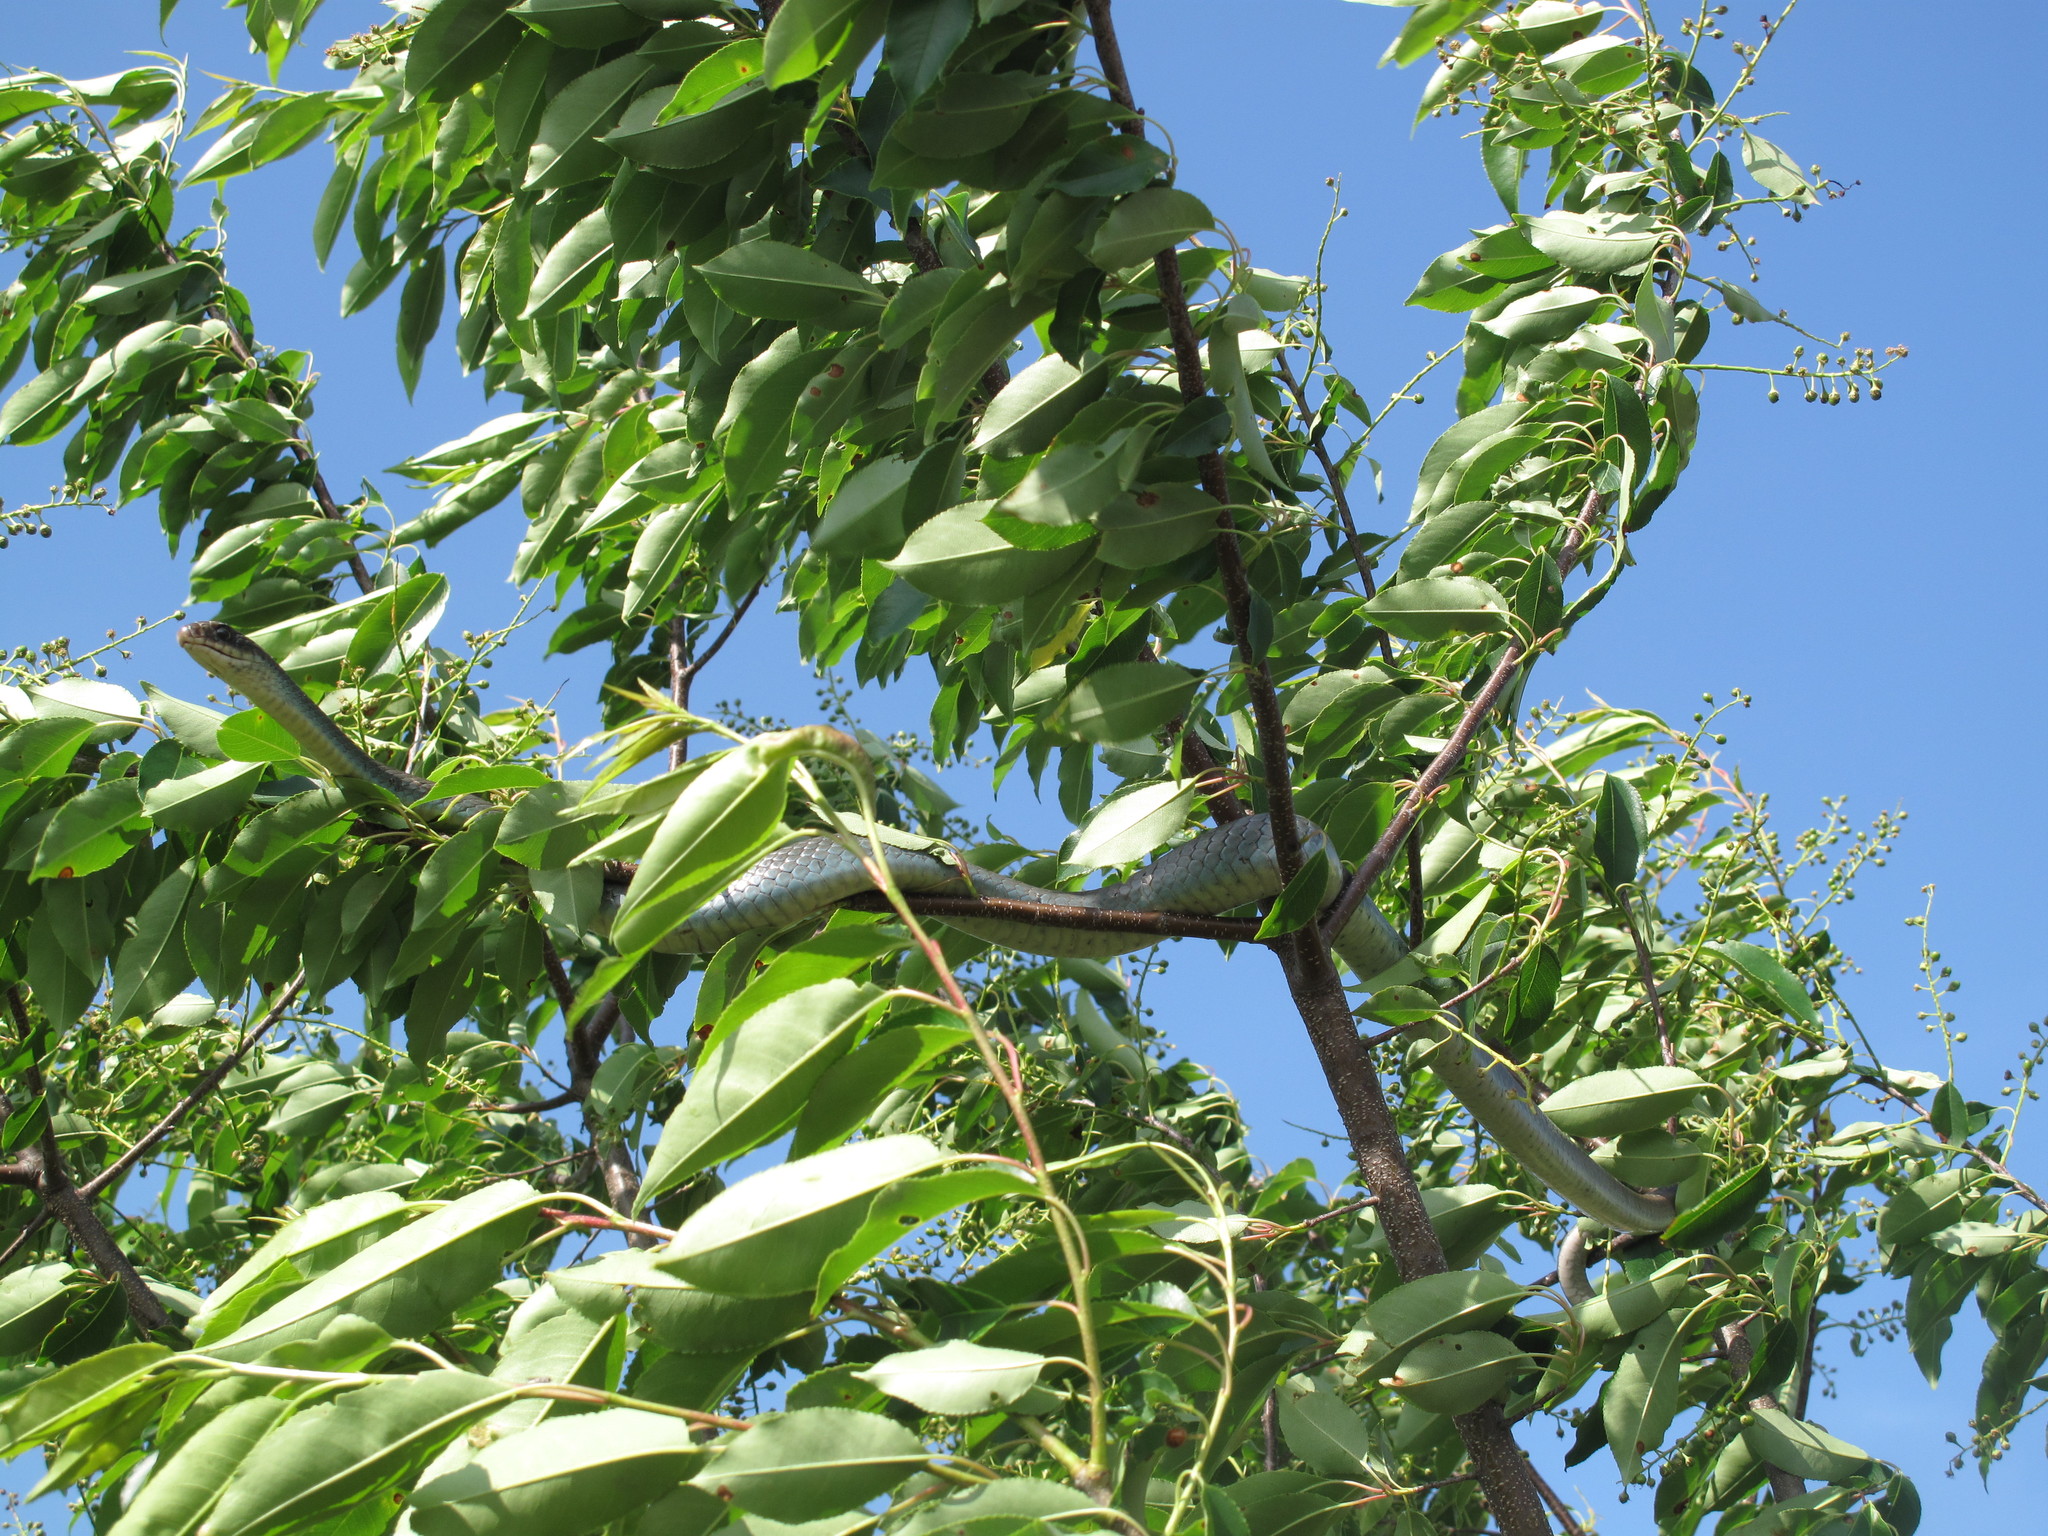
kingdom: Animalia
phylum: Chordata
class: Squamata
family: Colubridae
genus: Coluber
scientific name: Coluber constrictor
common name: Eastern racer
